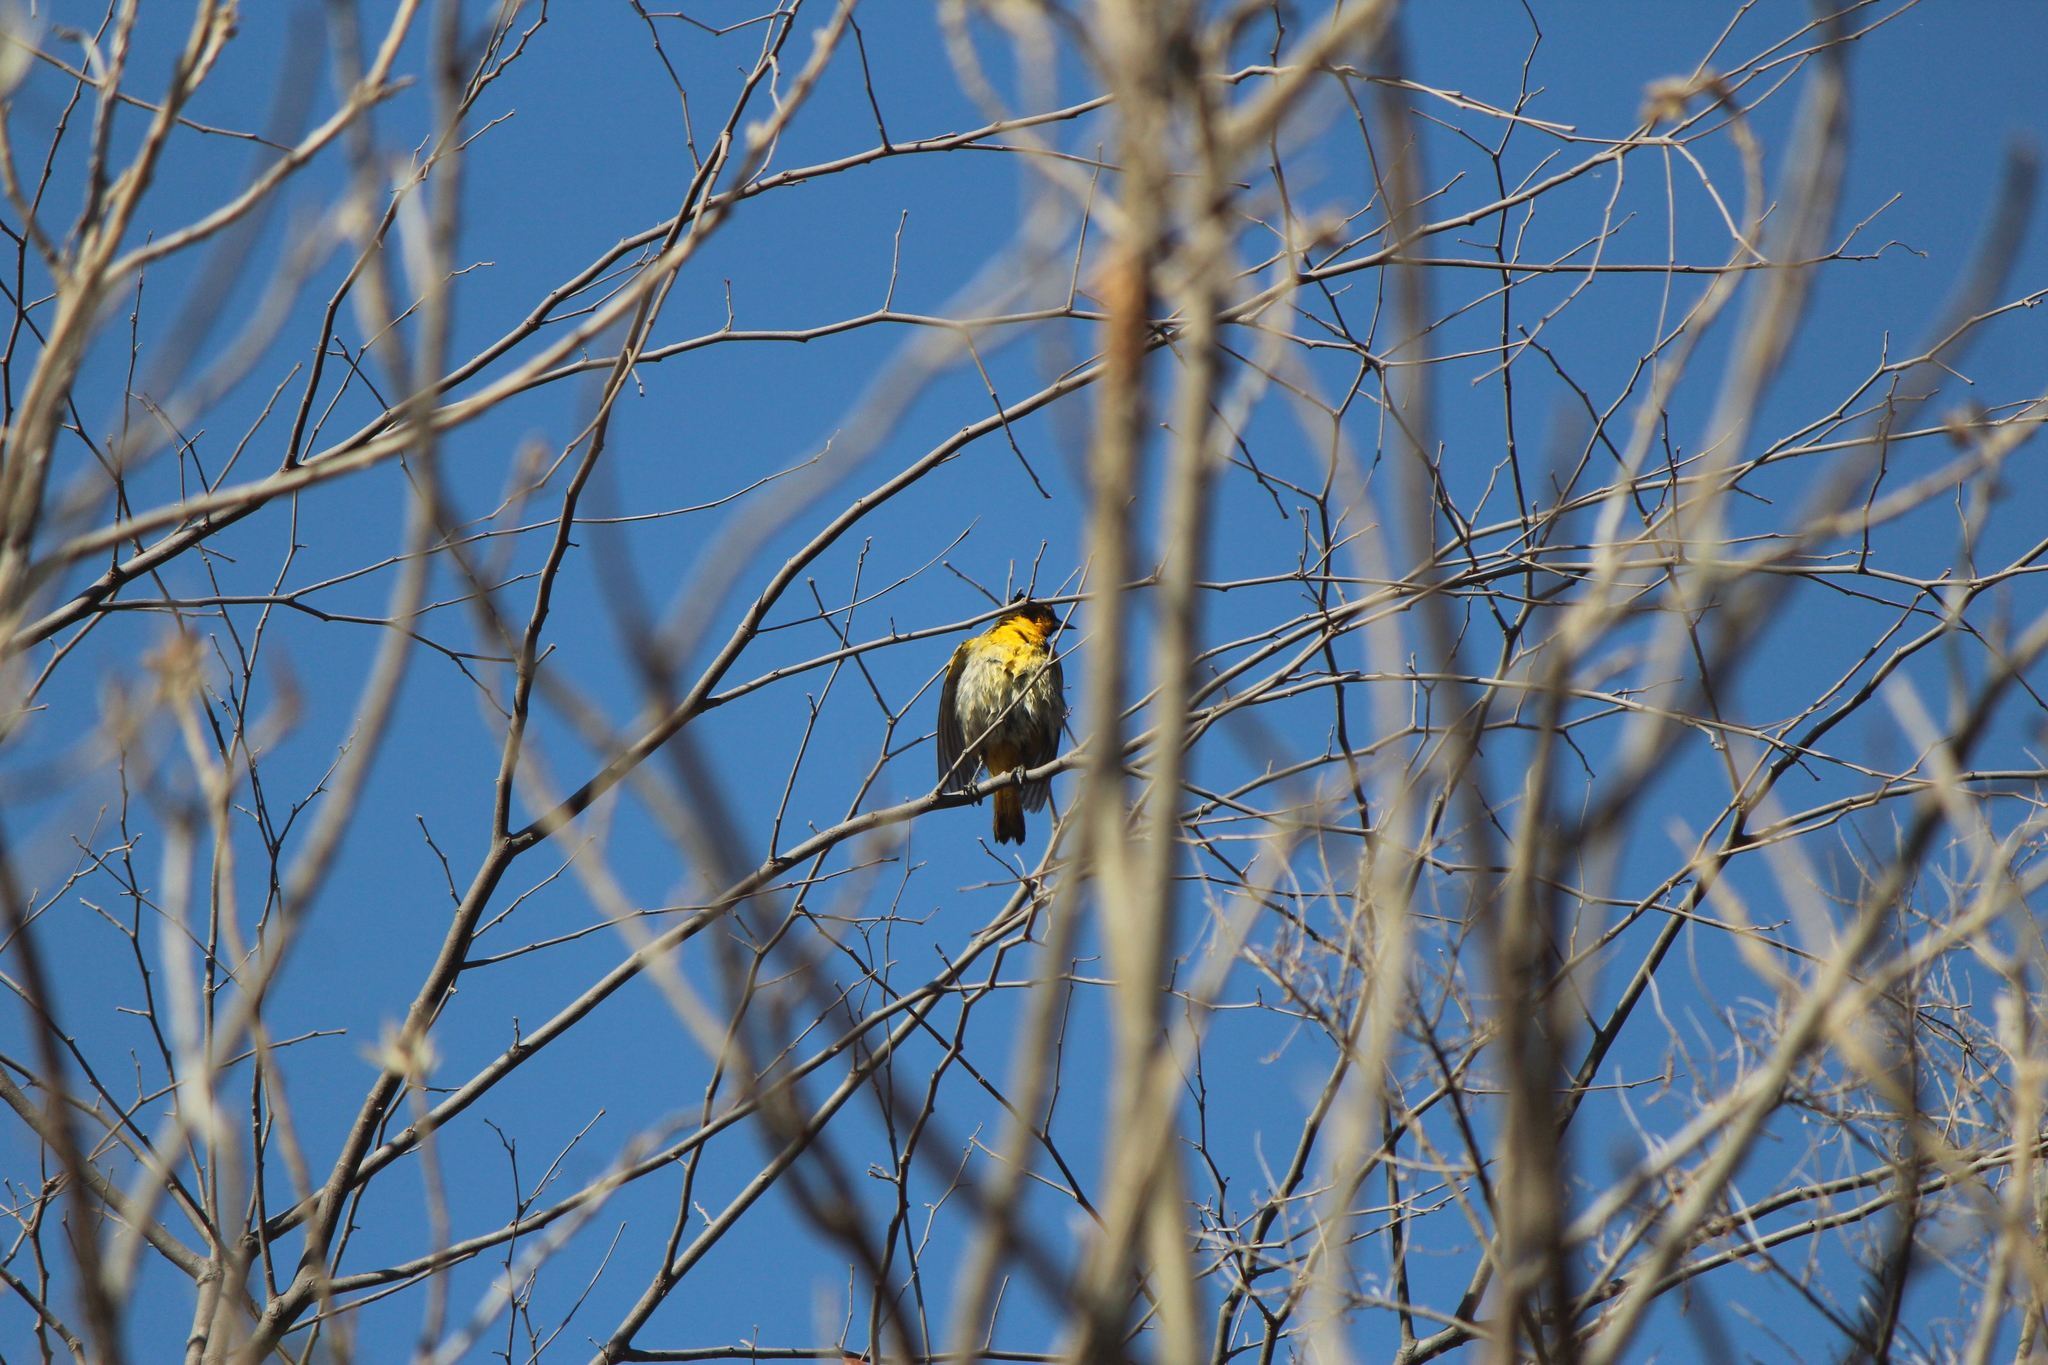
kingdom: Animalia
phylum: Chordata
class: Aves
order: Passeriformes
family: Icteridae
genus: Icterus
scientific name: Icterus abeillei
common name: Black-backed oriole
